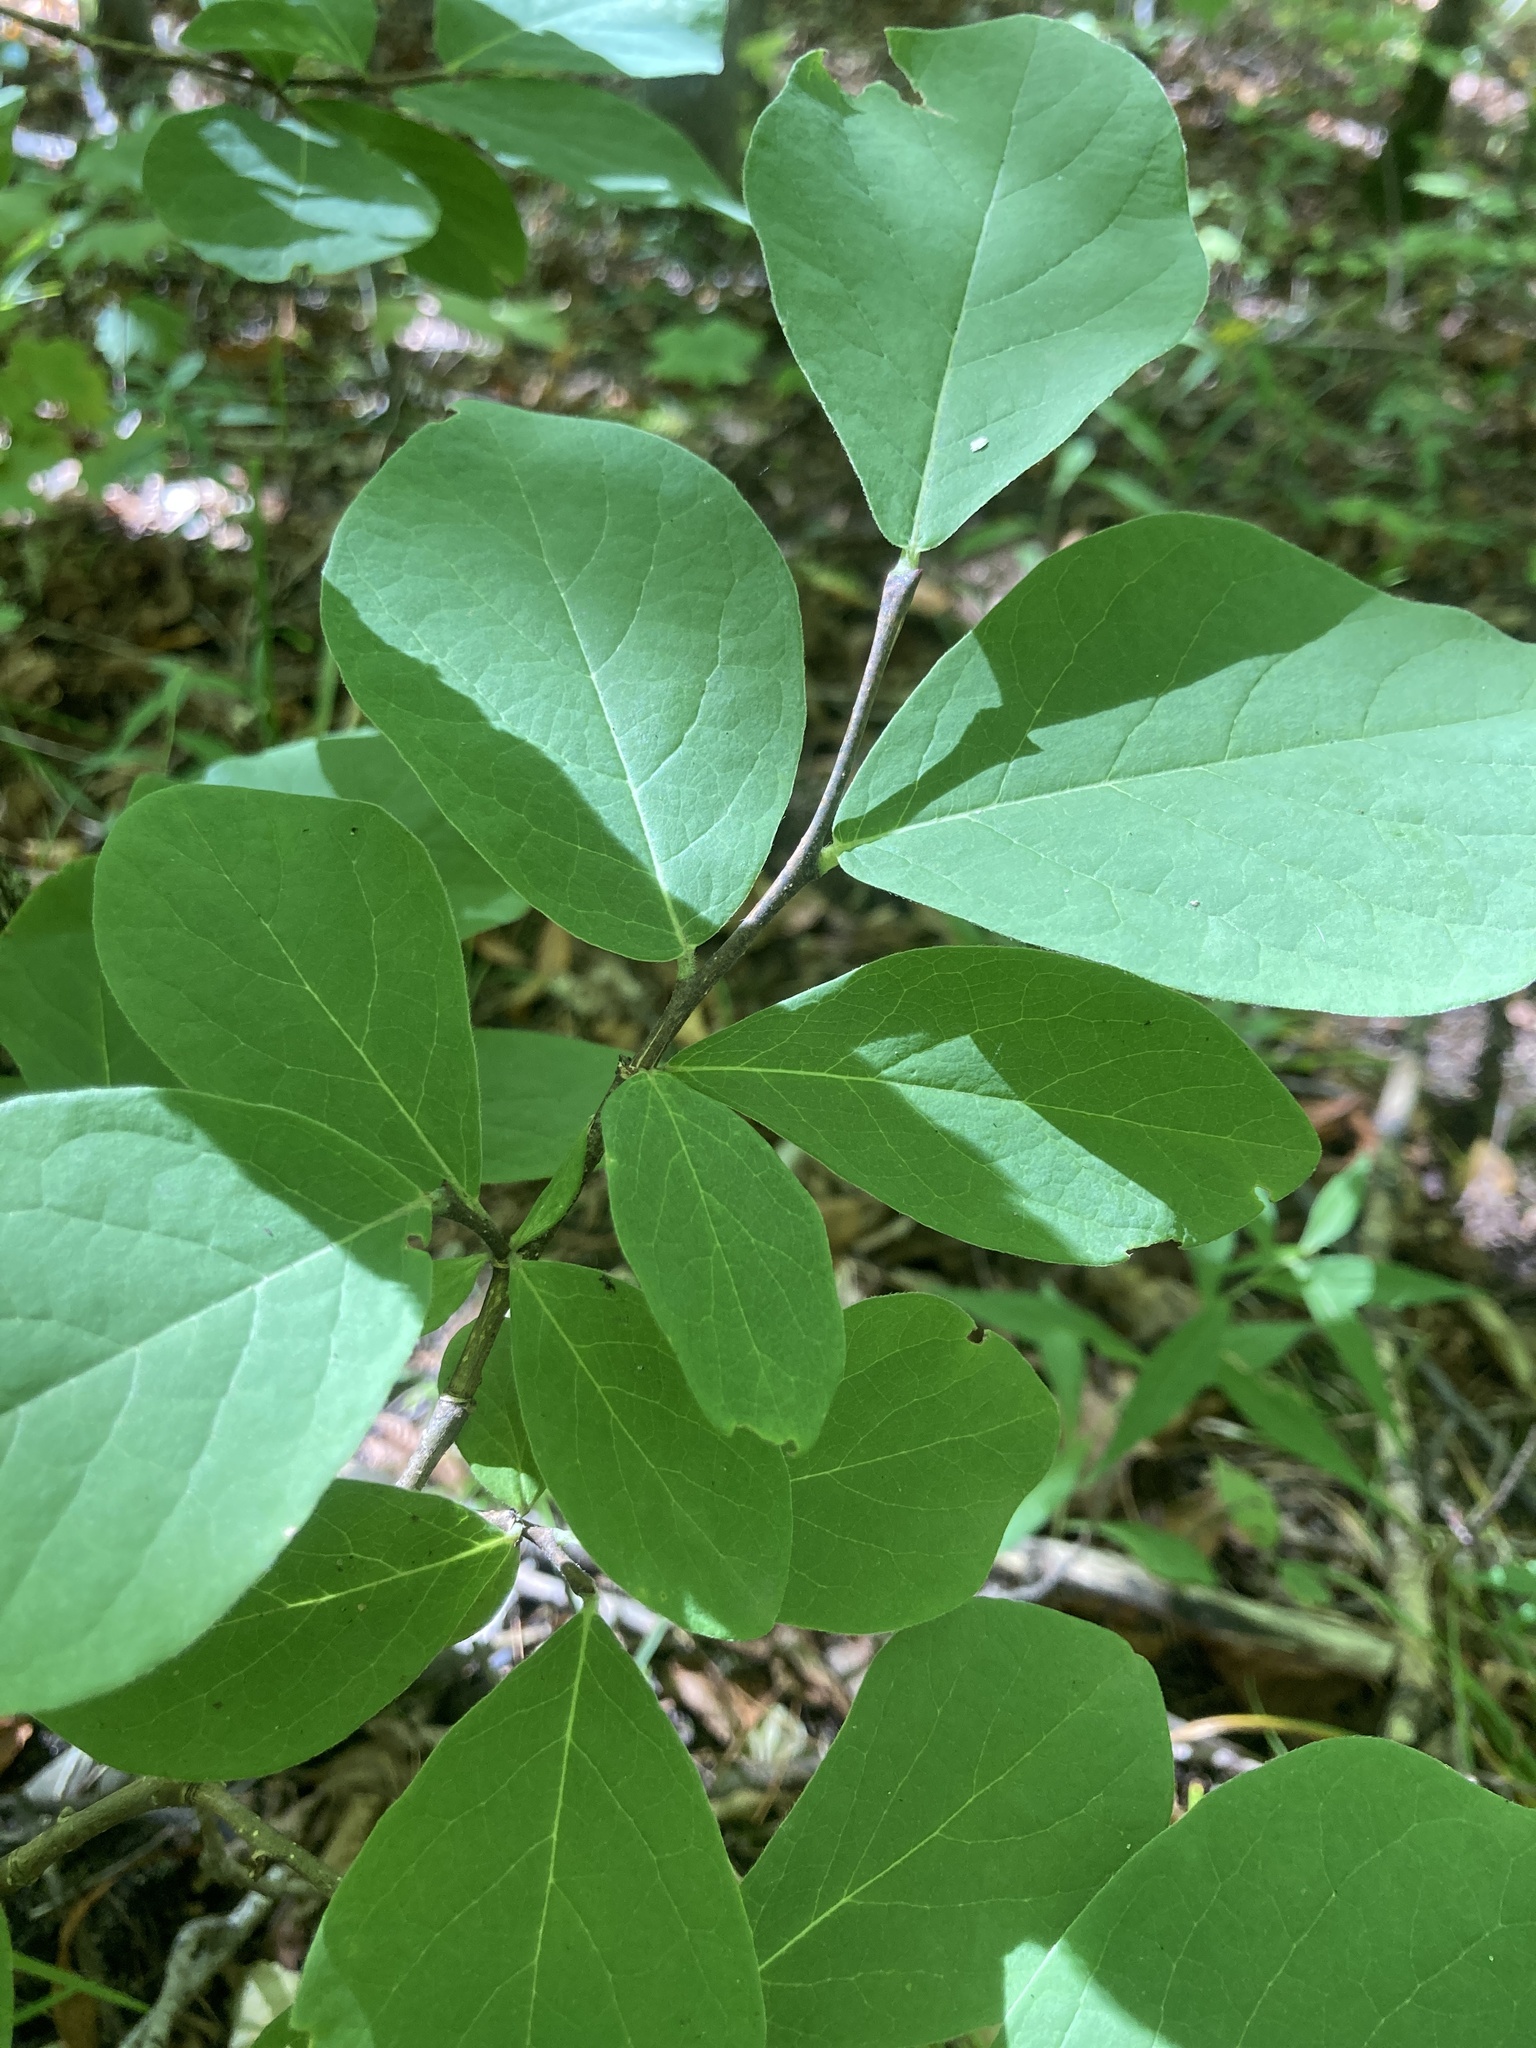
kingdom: Plantae
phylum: Tracheophyta
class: Magnoliopsida
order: Malvales
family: Thymelaeaceae
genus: Dirca
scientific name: Dirca palustris
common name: Leatherwood
